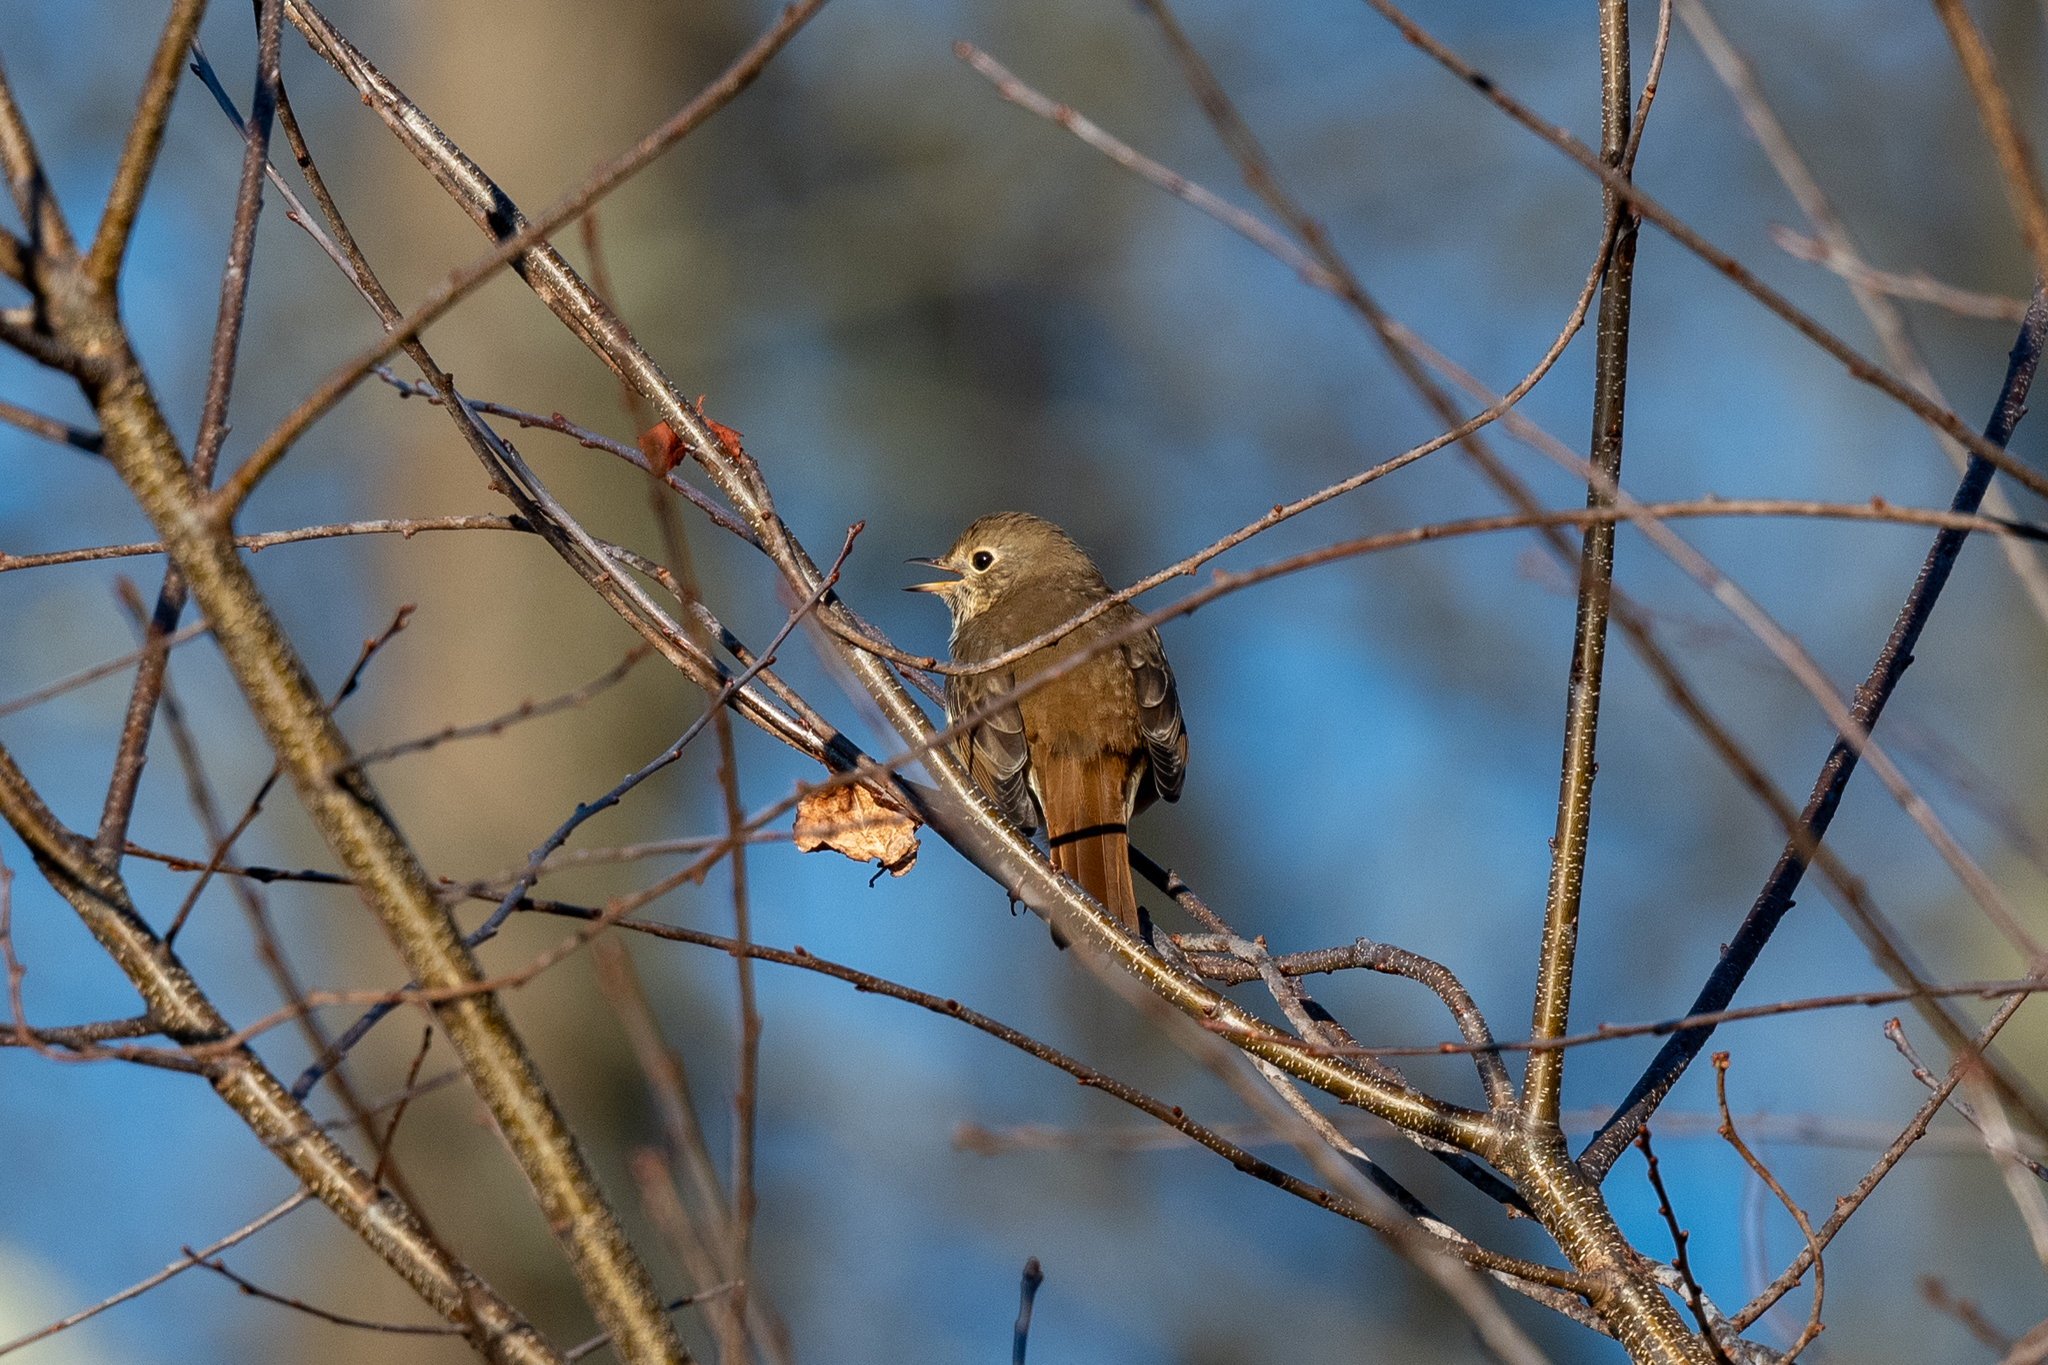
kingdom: Animalia
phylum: Chordata
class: Aves
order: Passeriformes
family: Turdidae
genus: Catharus
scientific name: Catharus guttatus
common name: Hermit thrush
